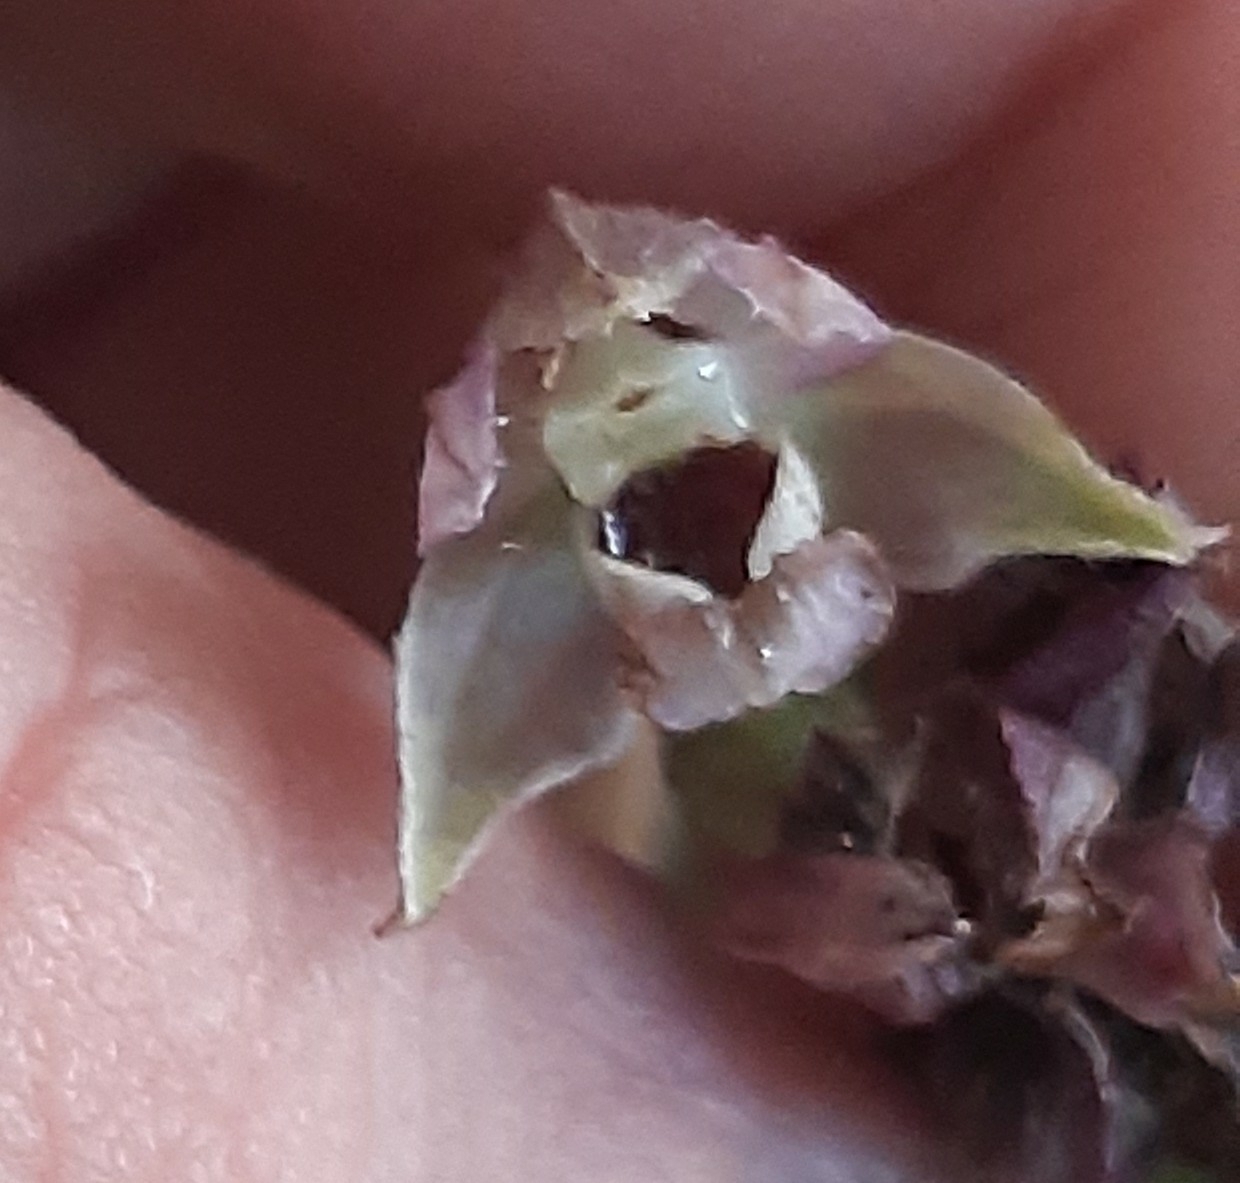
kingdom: Plantae
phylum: Tracheophyta
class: Liliopsida
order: Asparagales
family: Orchidaceae
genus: Epipactis
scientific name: Epipactis helleborine
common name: Broad-leaved helleborine
